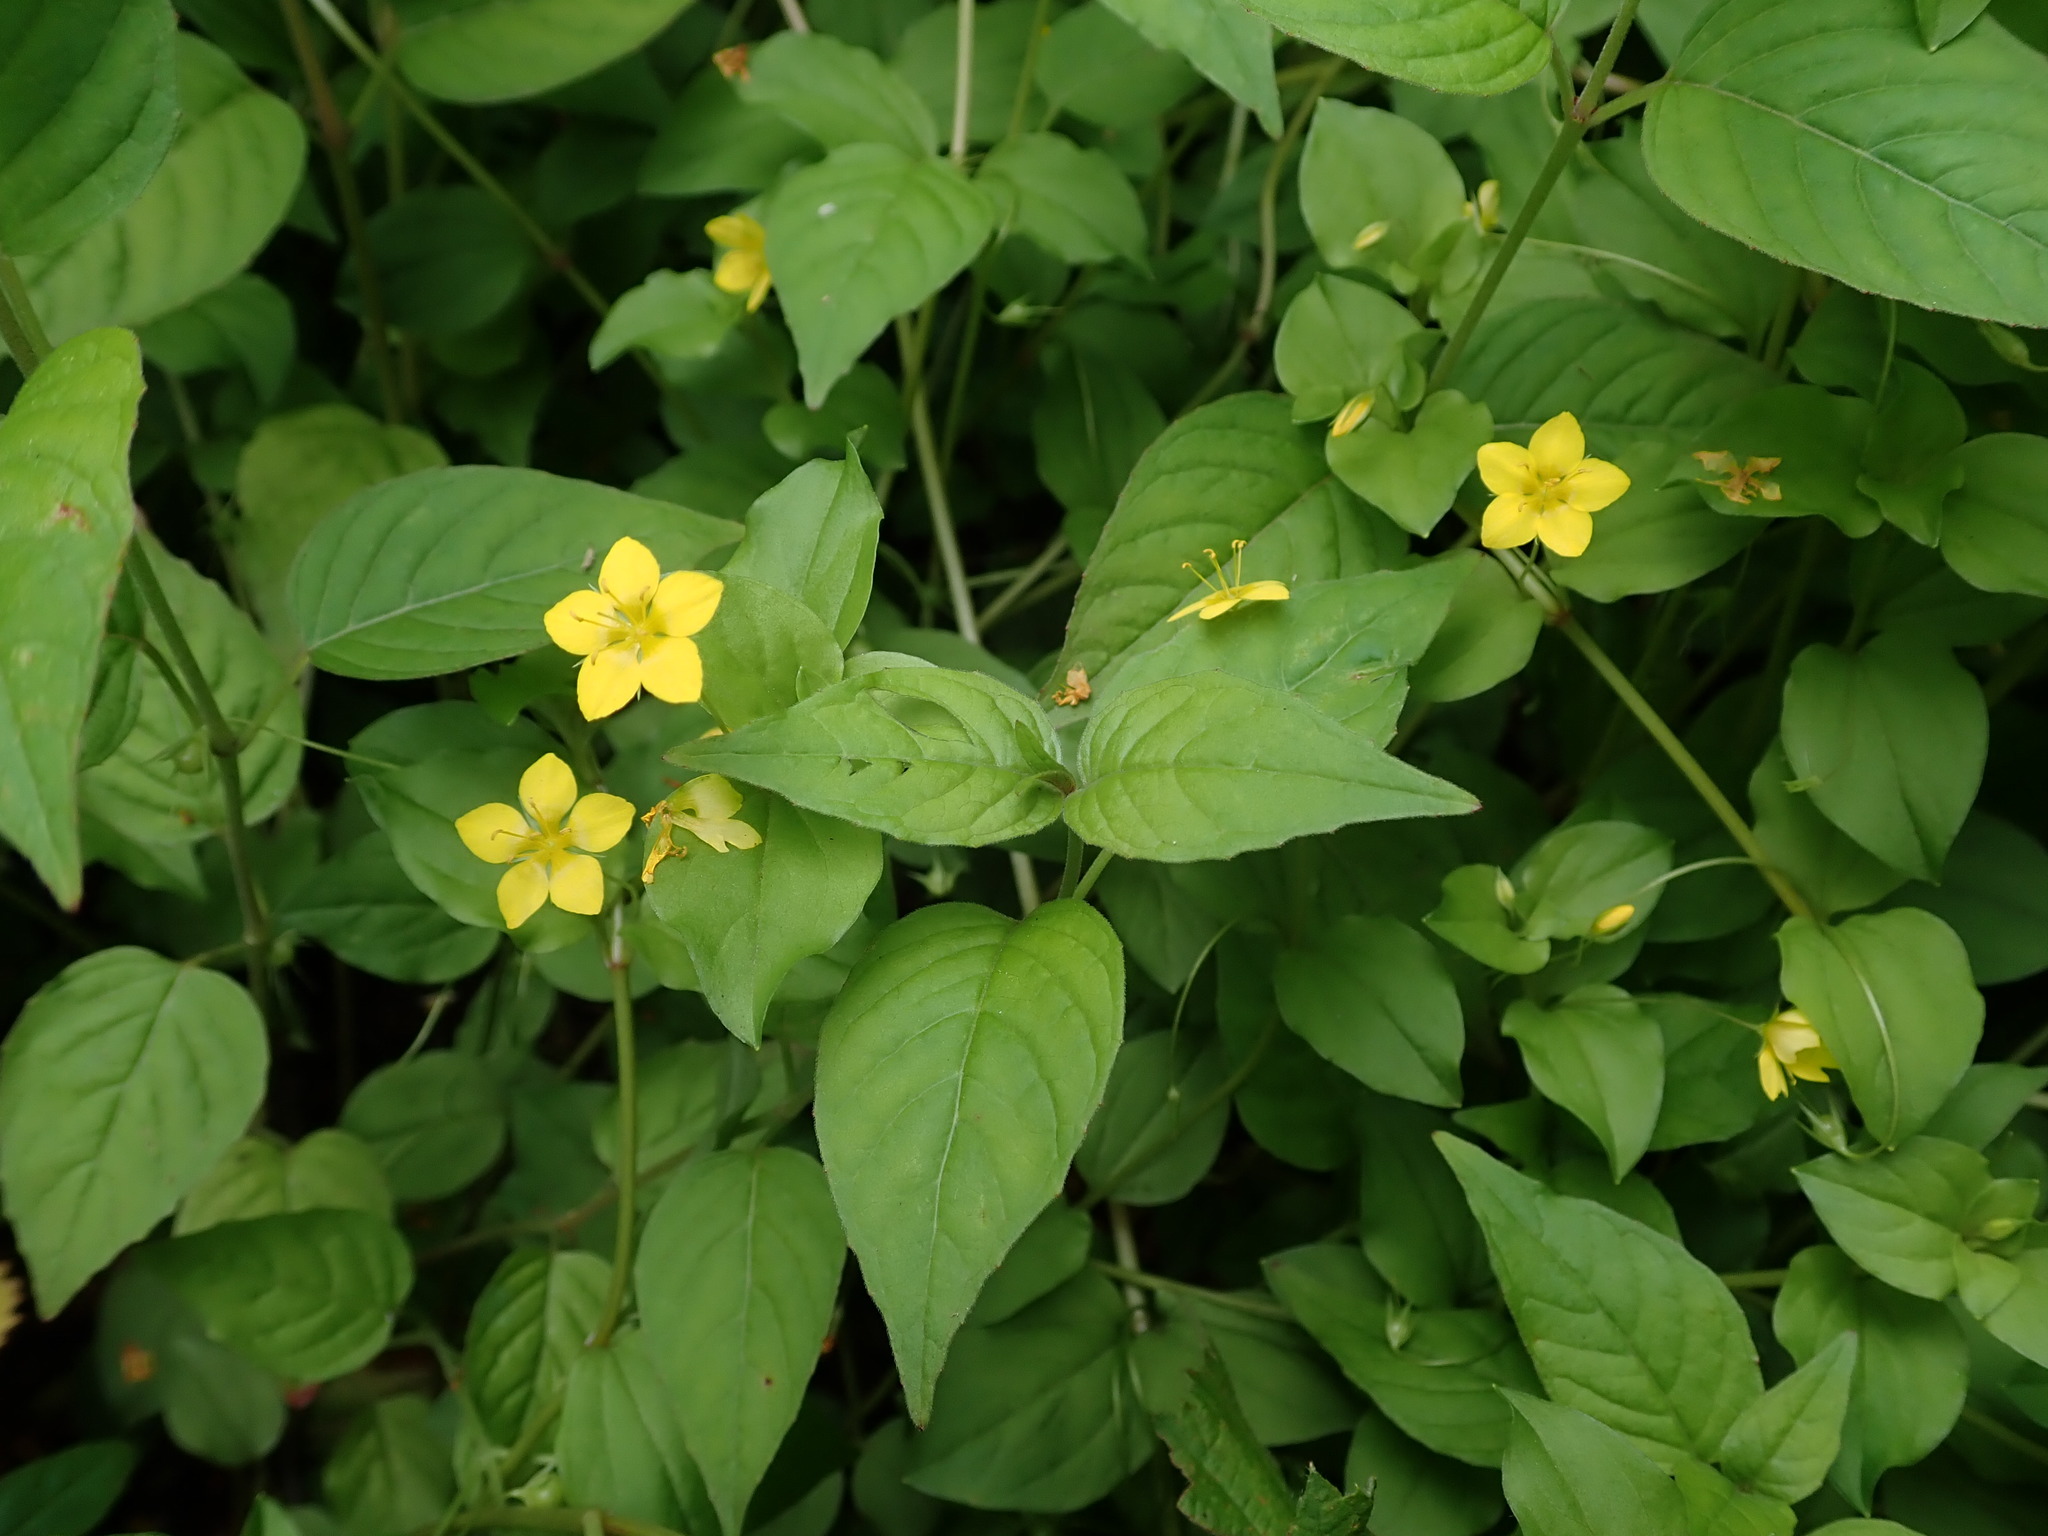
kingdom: Plantae
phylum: Tracheophyta
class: Magnoliopsida
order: Ericales
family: Primulaceae
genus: Lysimachia
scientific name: Lysimachia nemorum
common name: Yellow pimpernel
